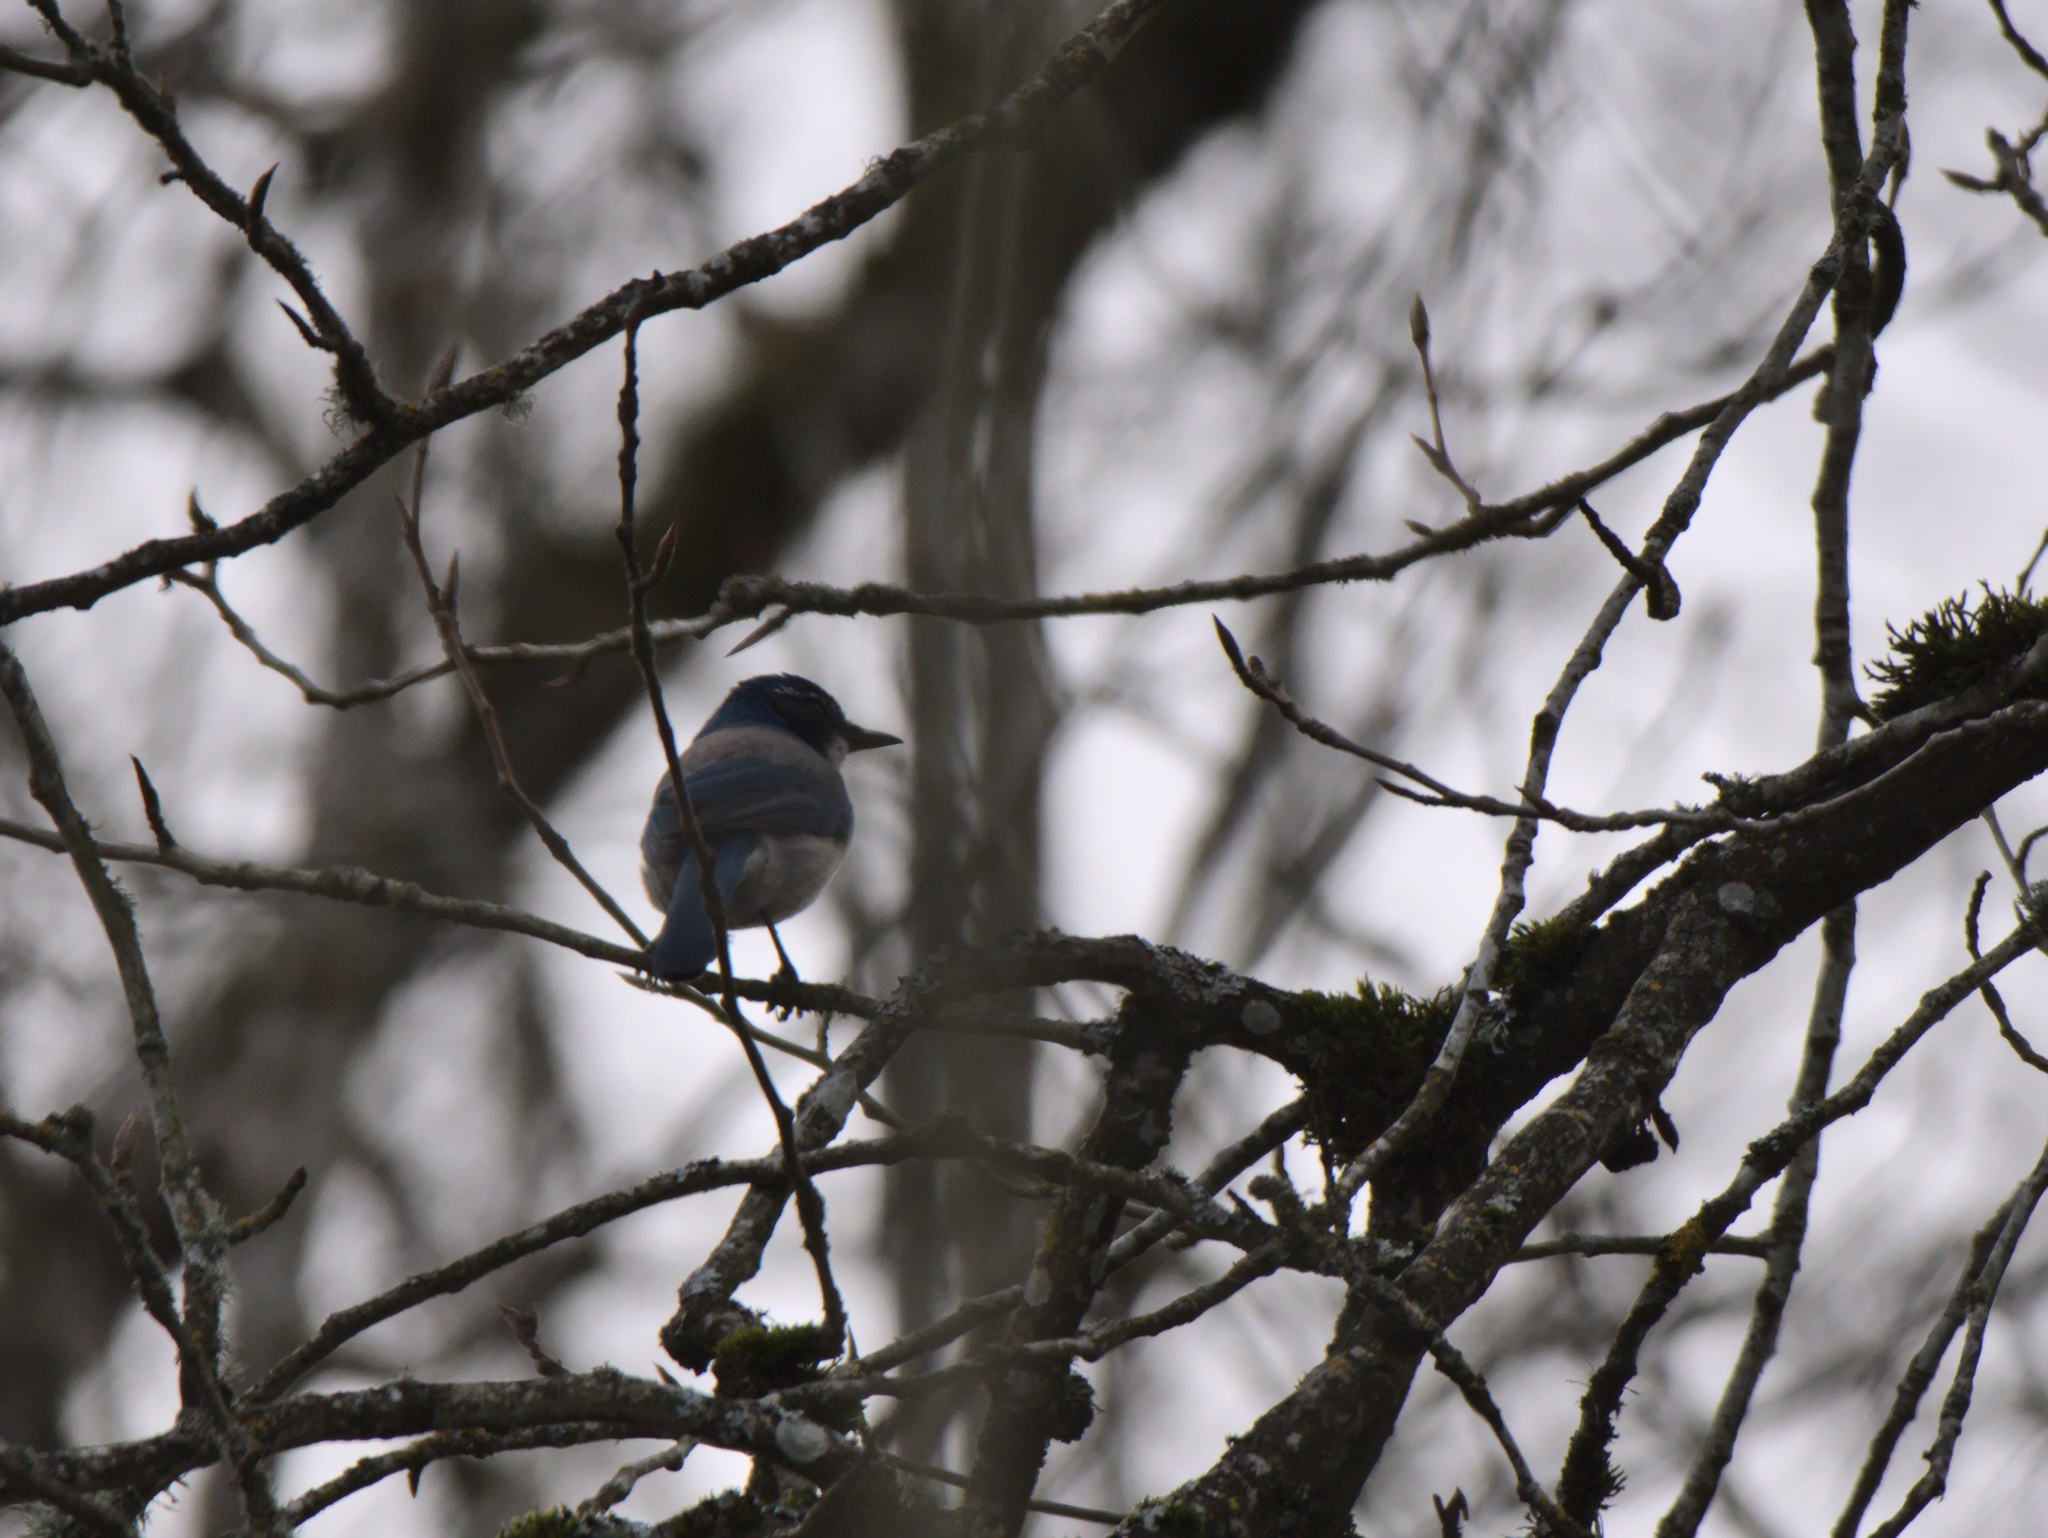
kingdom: Animalia
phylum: Chordata
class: Aves
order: Passeriformes
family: Corvidae
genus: Aphelocoma
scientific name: Aphelocoma californica
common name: California scrub-jay
